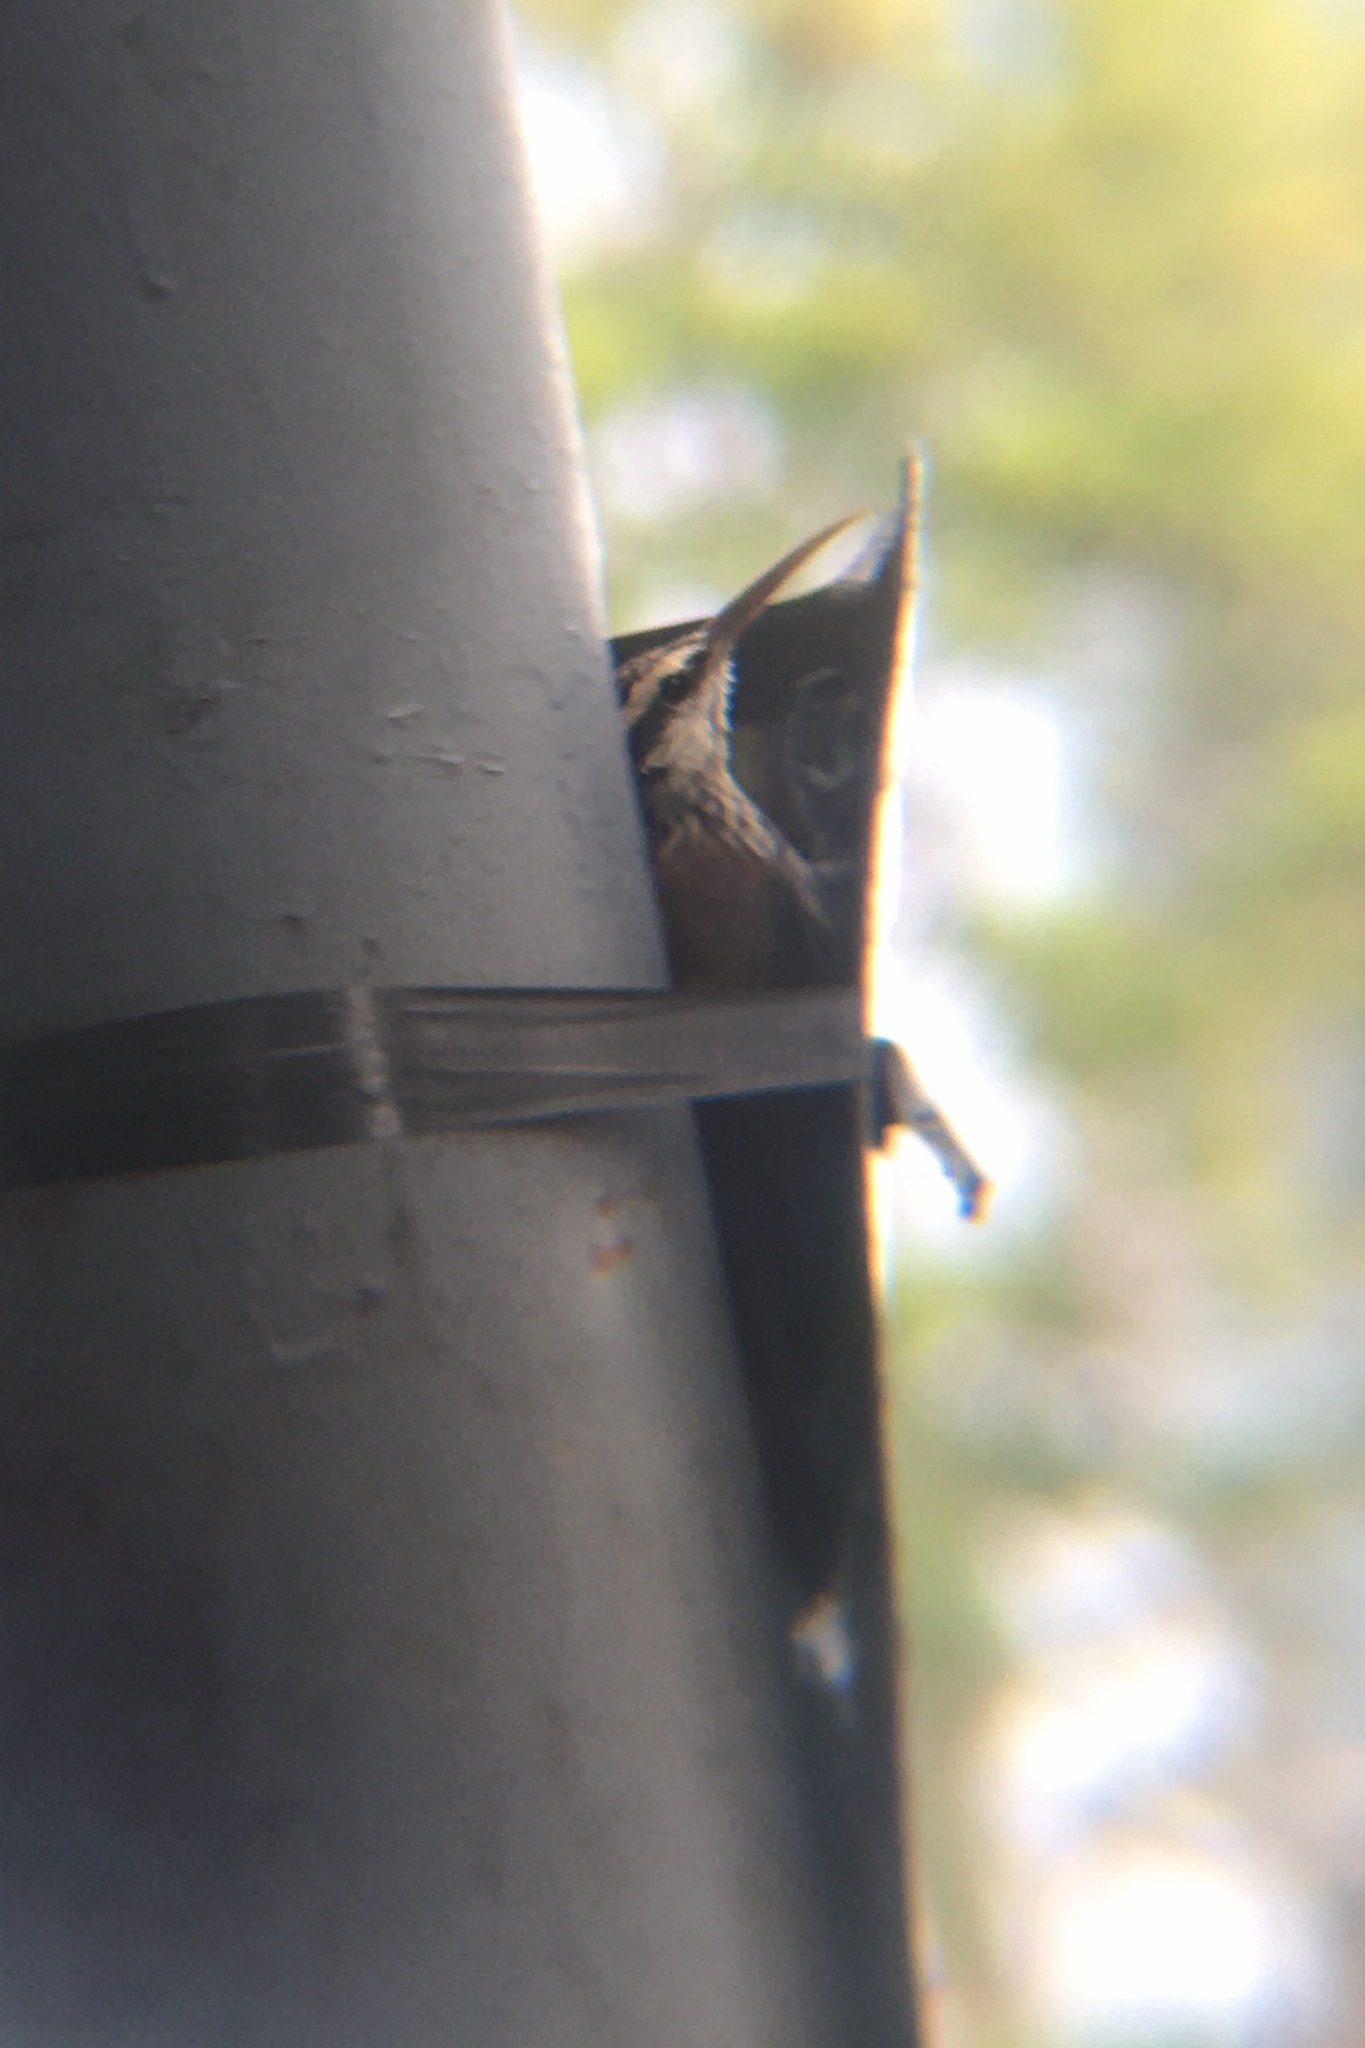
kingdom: Animalia
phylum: Chordata
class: Aves
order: Passeriformes
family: Furnariidae
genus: Lepidocolaptes
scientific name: Lepidocolaptes angustirostris
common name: Narrow-billed woodcreeper
